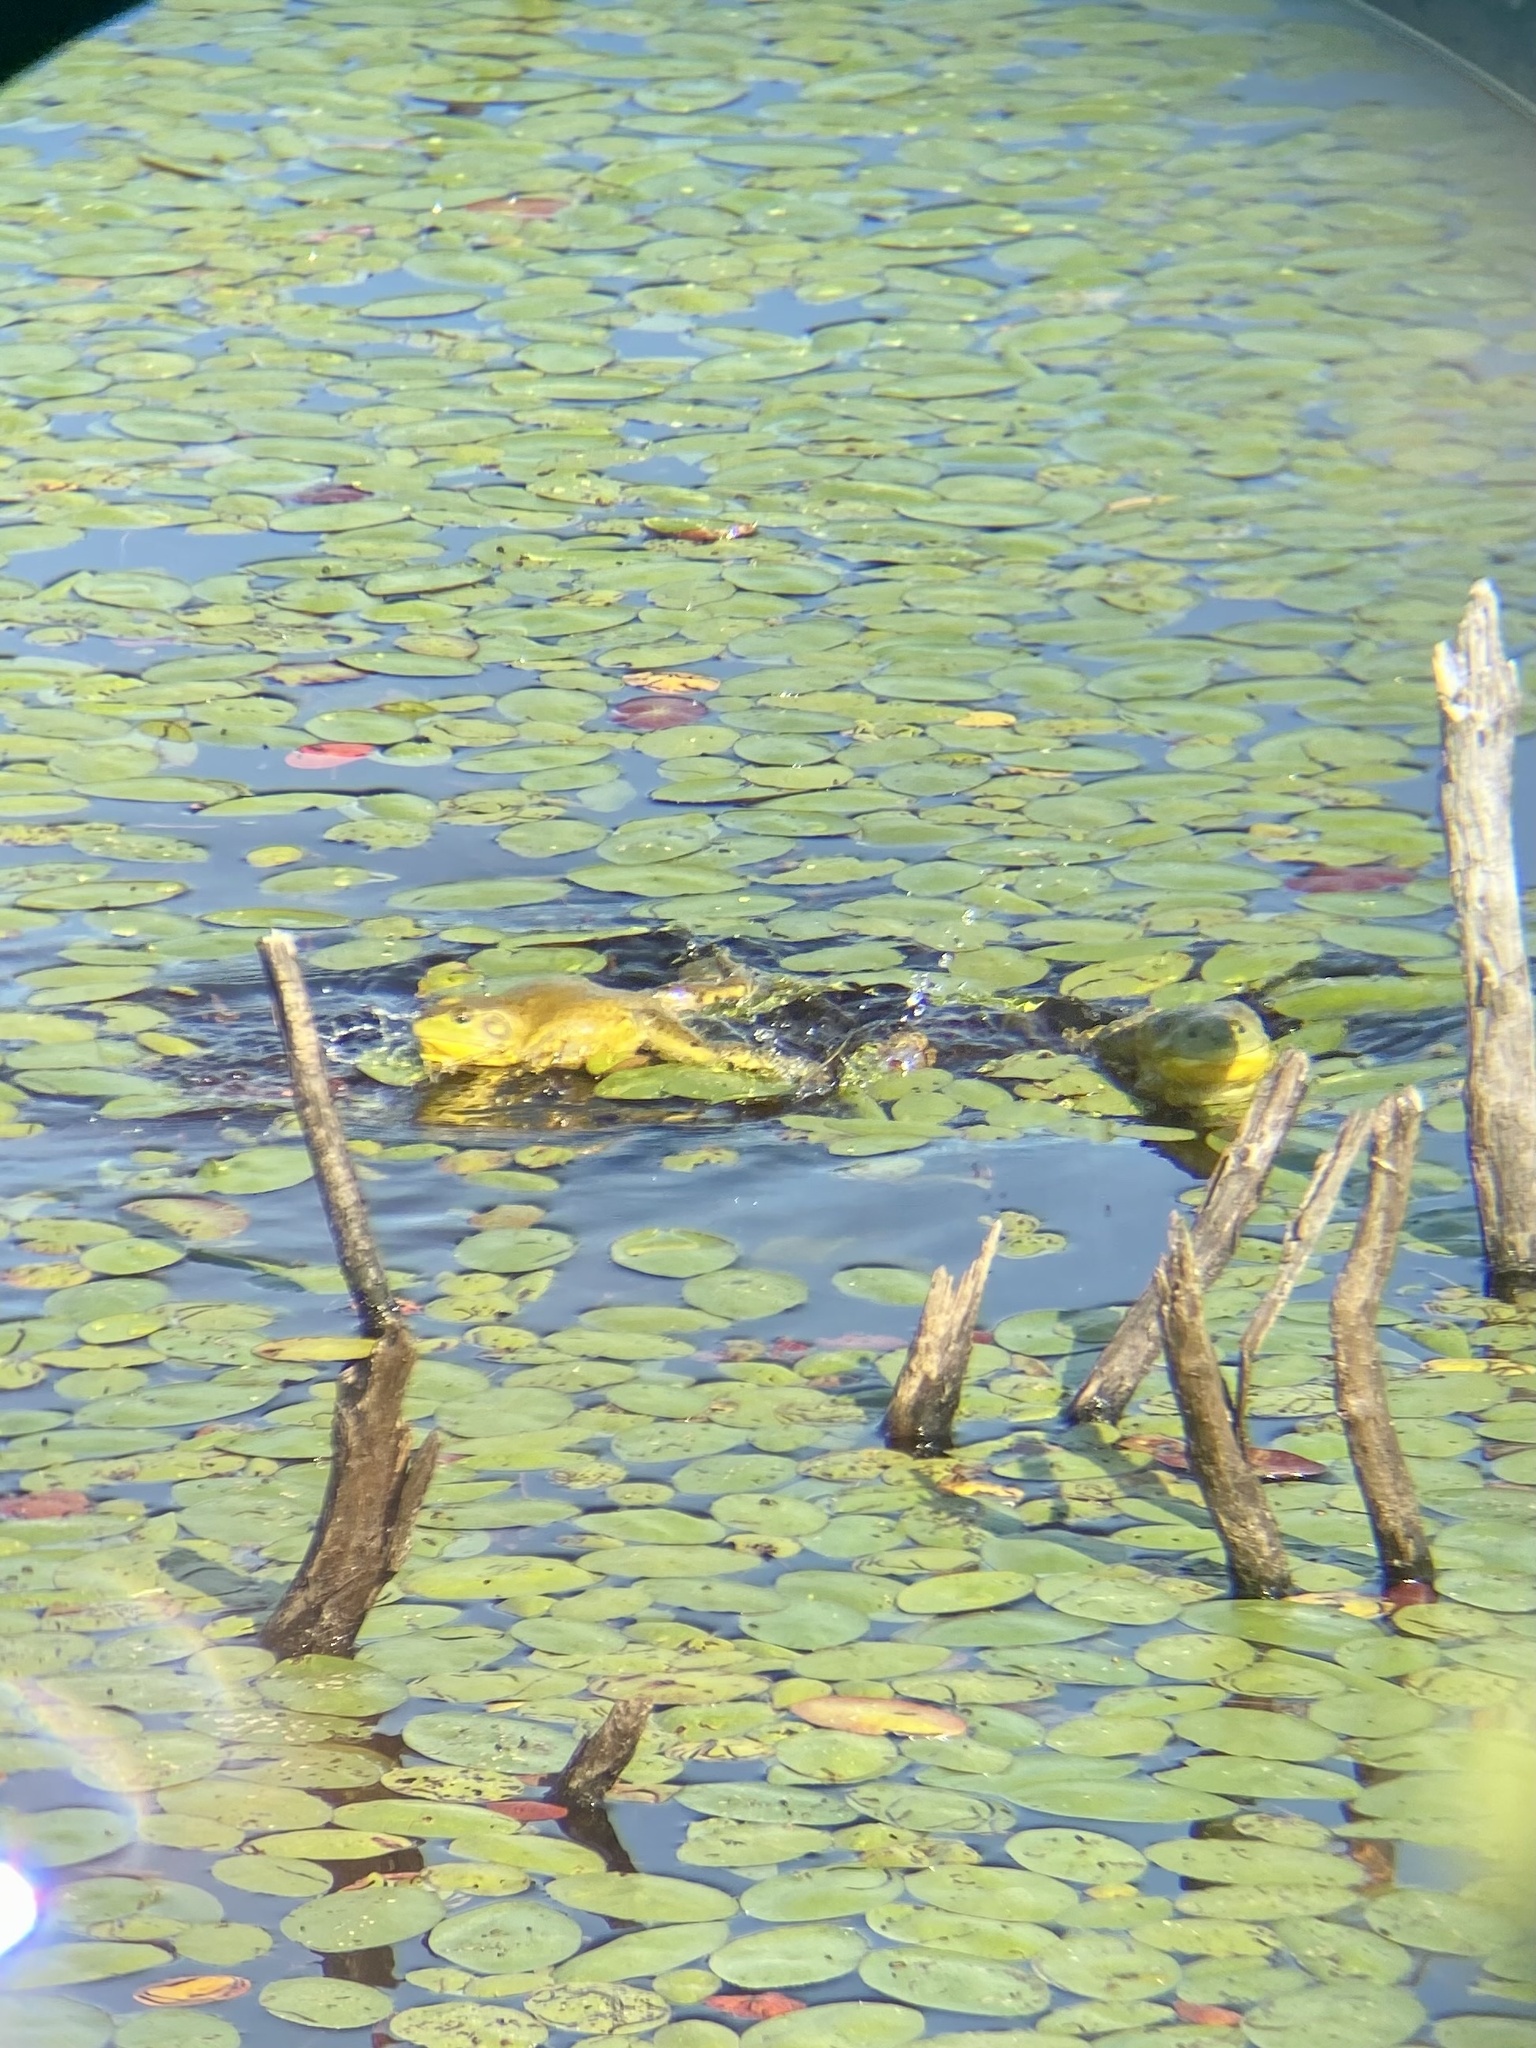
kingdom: Animalia
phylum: Chordata
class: Amphibia
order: Anura
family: Ranidae
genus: Lithobates
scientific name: Lithobates catesbeianus
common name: American bullfrog
